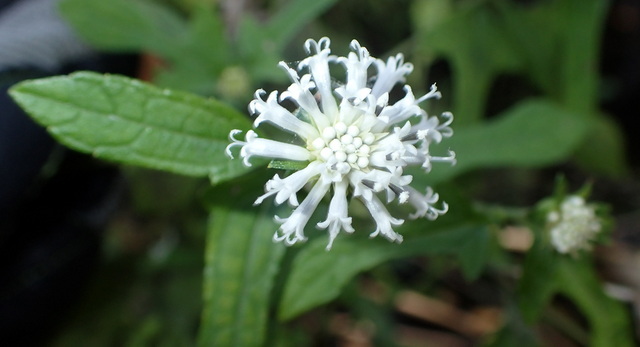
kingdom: Plantae
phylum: Tracheophyta
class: Magnoliopsida
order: Asterales
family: Asteraceae
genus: Melanthera
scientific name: Melanthera nivea
